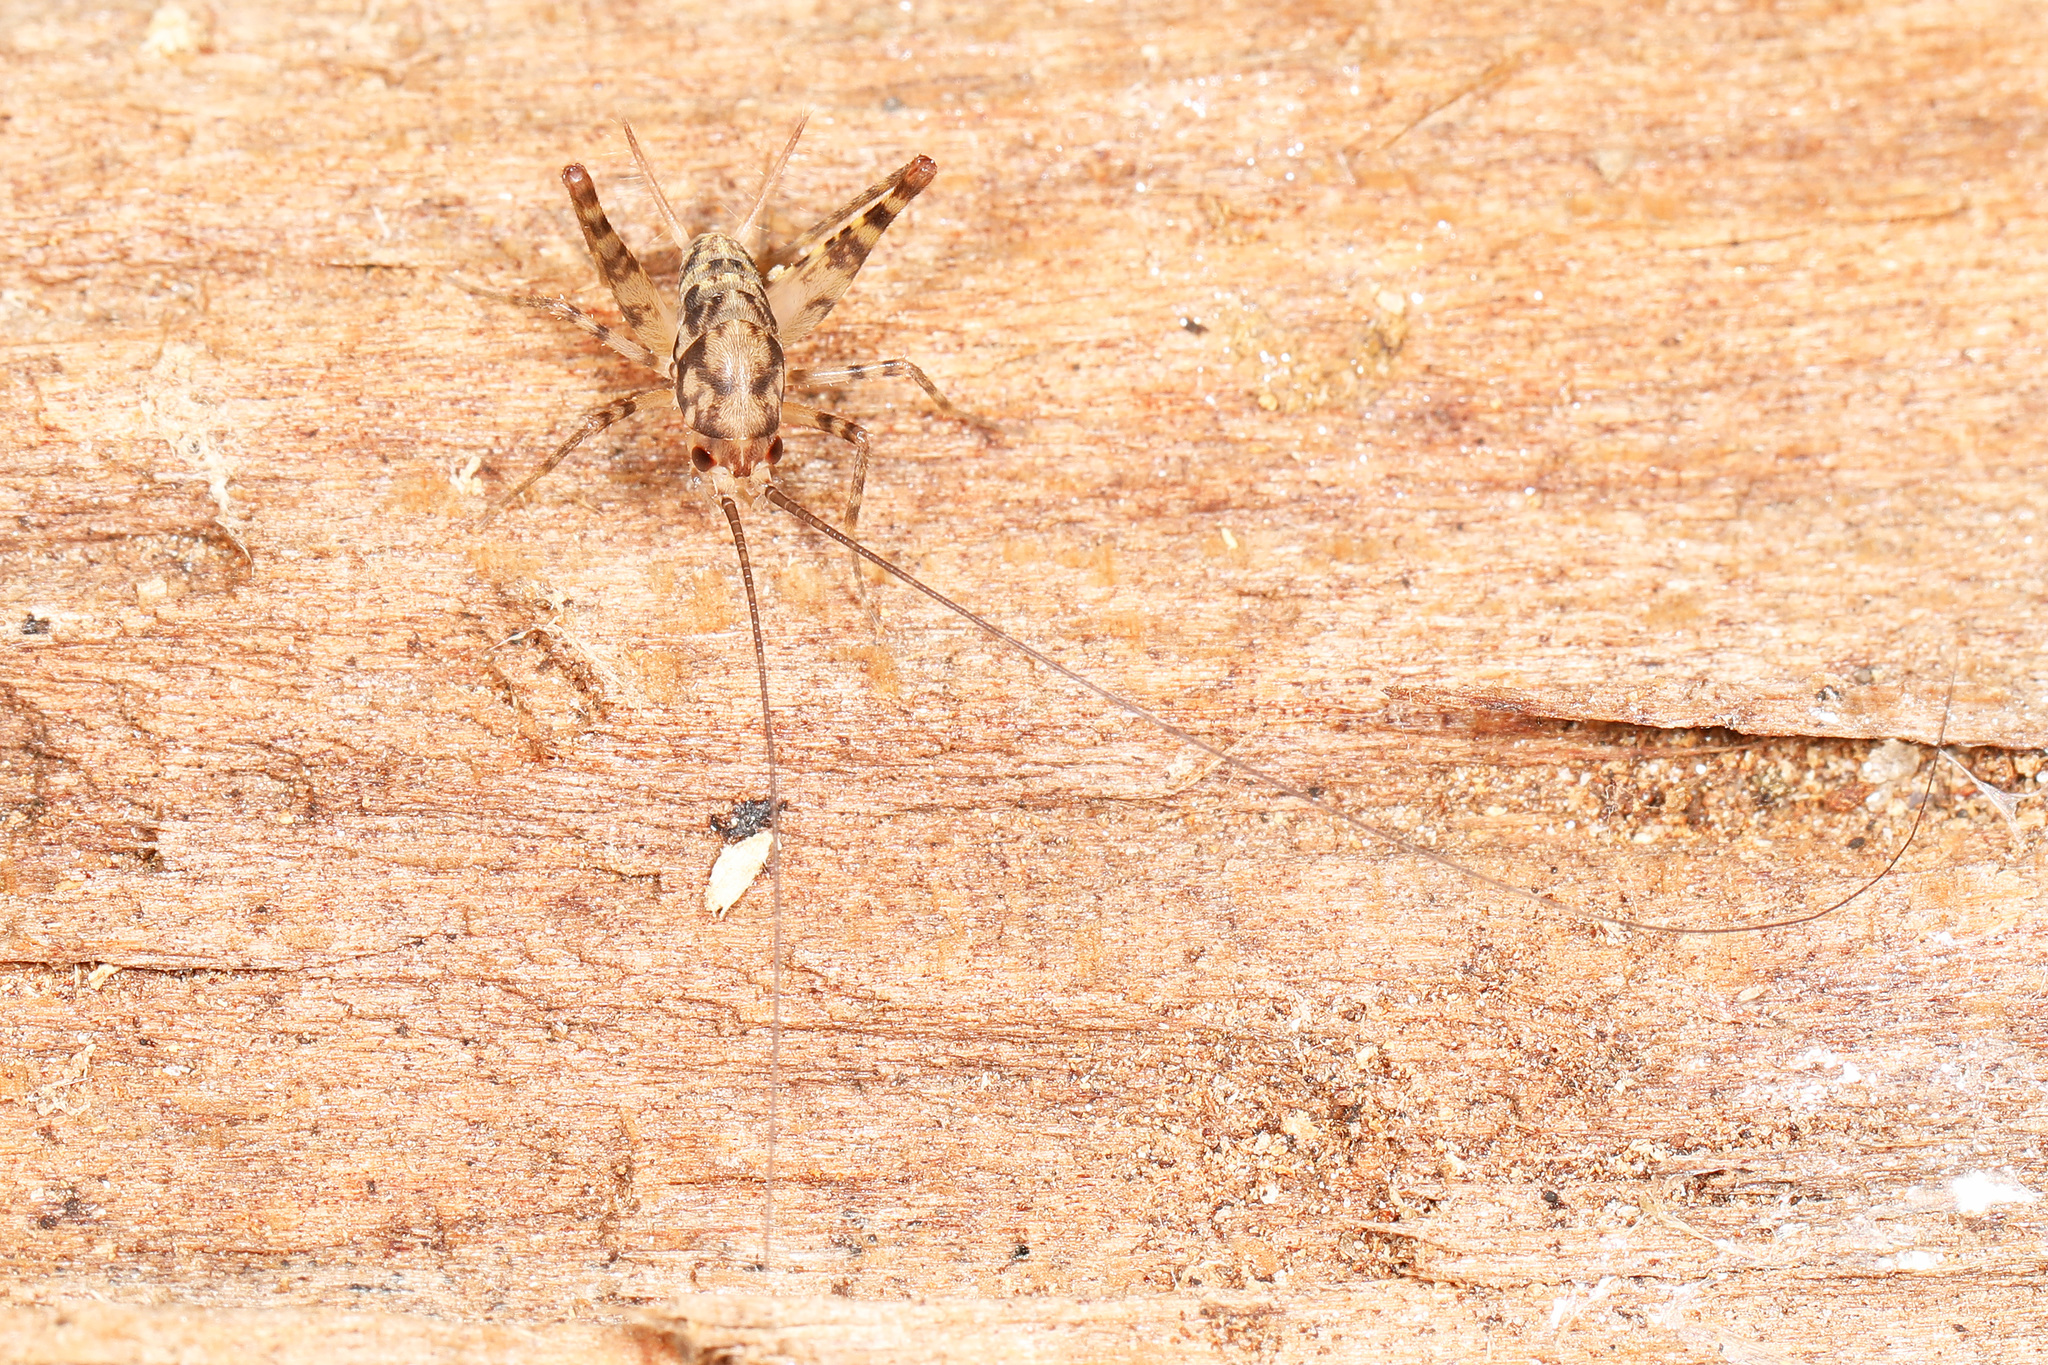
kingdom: Animalia
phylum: Arthropoda
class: Insecta
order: Orthoptera
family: Rhaphidophoridae
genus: Tachycines
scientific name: Tachycines asynamorus
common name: Greenhouse camel cricket
